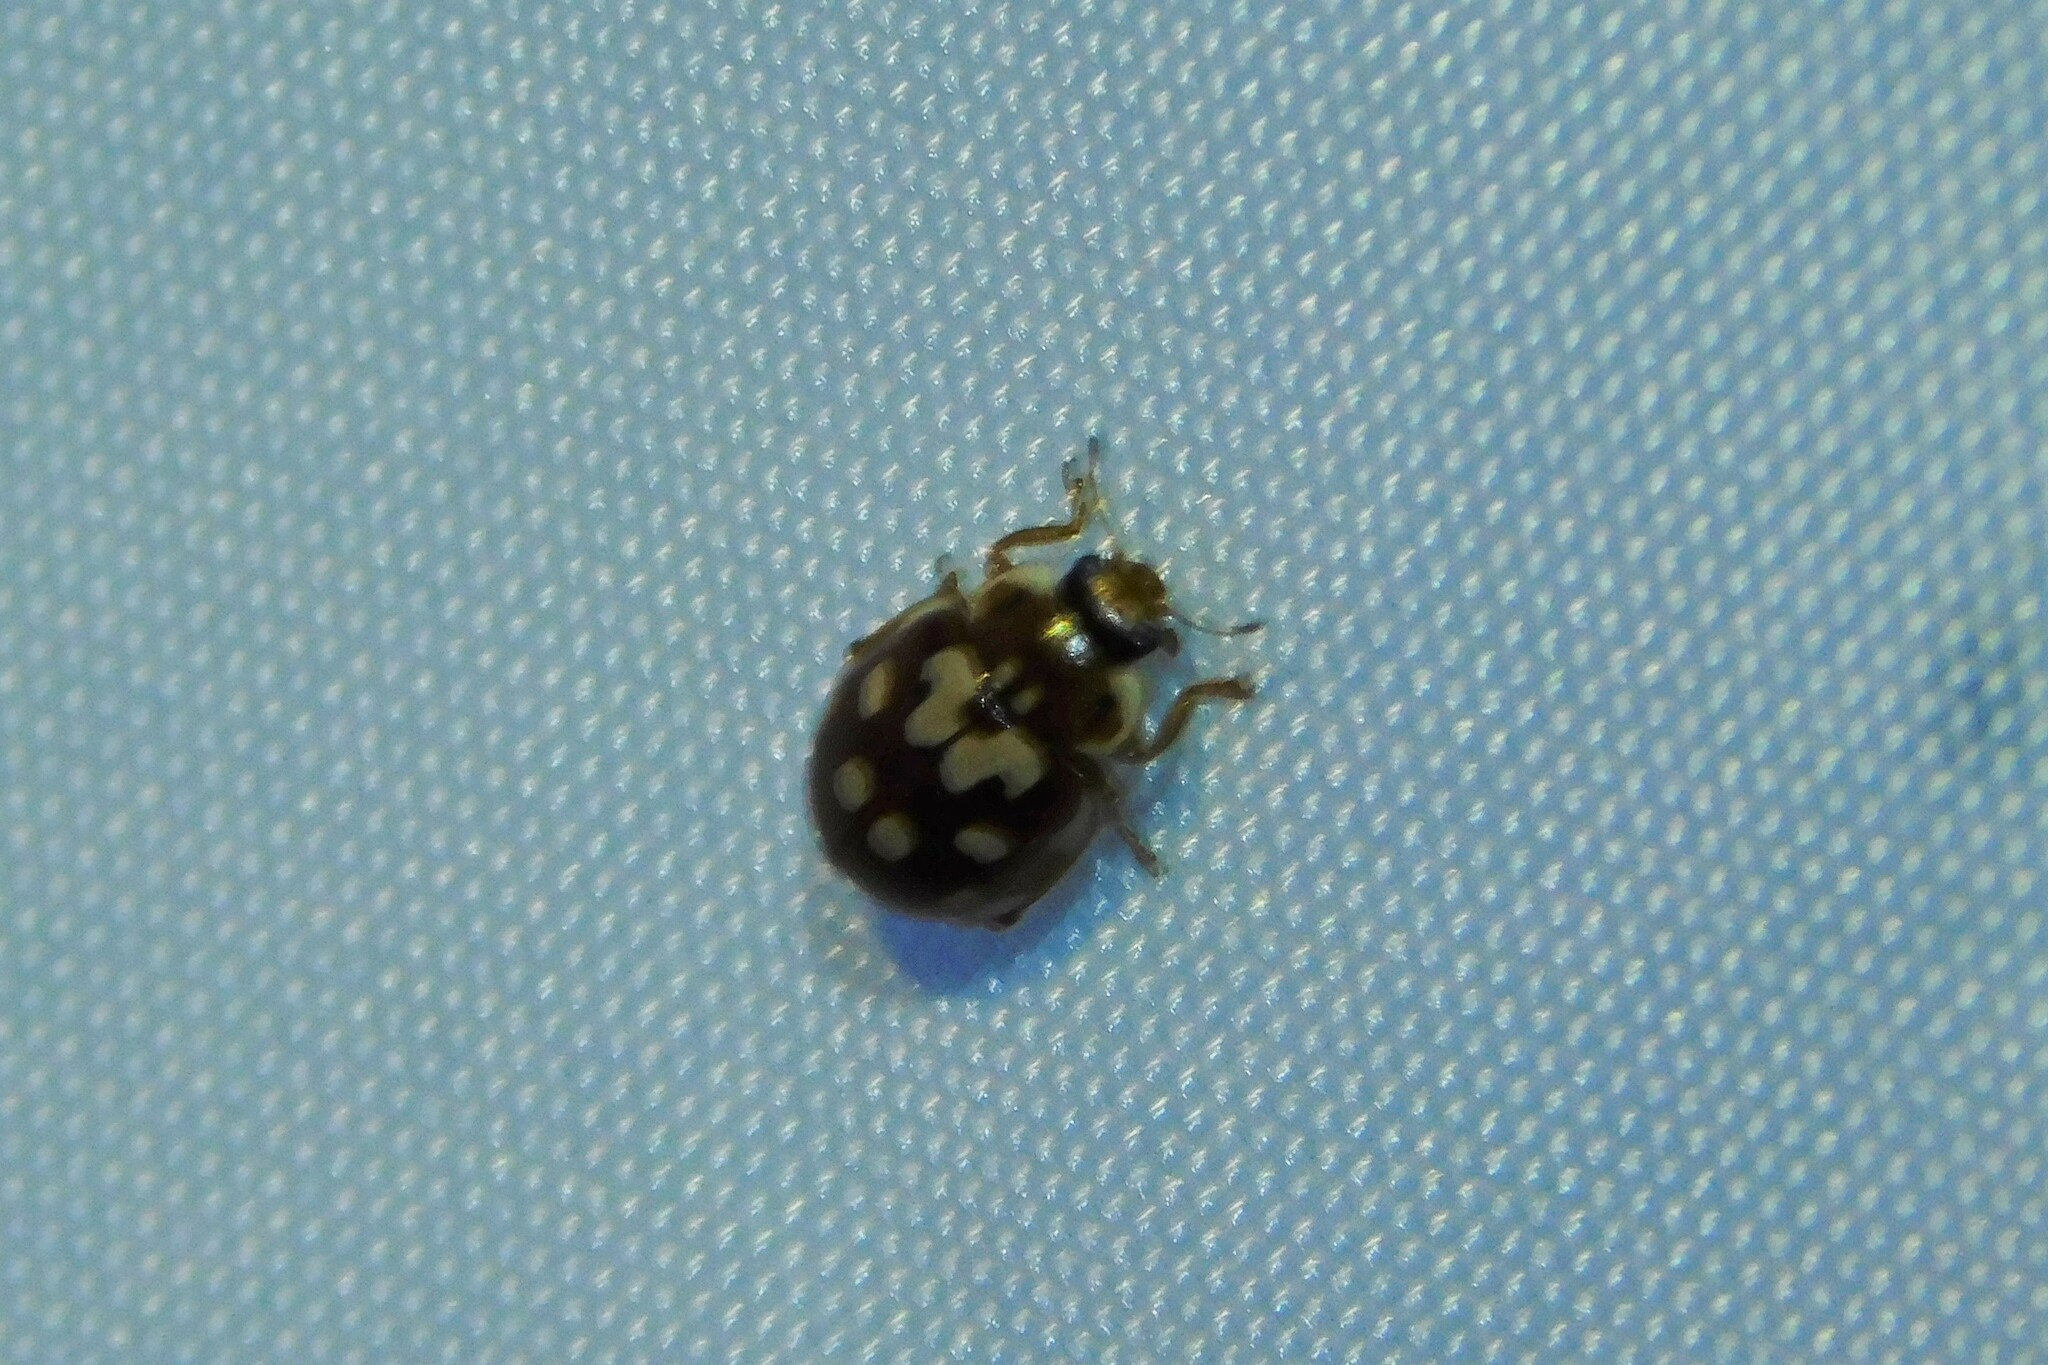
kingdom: Animalia
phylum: Arthropoda
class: Insecta
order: Coleoptera
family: Coccinellidae
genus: Myrrha
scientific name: Myrrha octodecimguttata
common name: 18-spot ladybird
